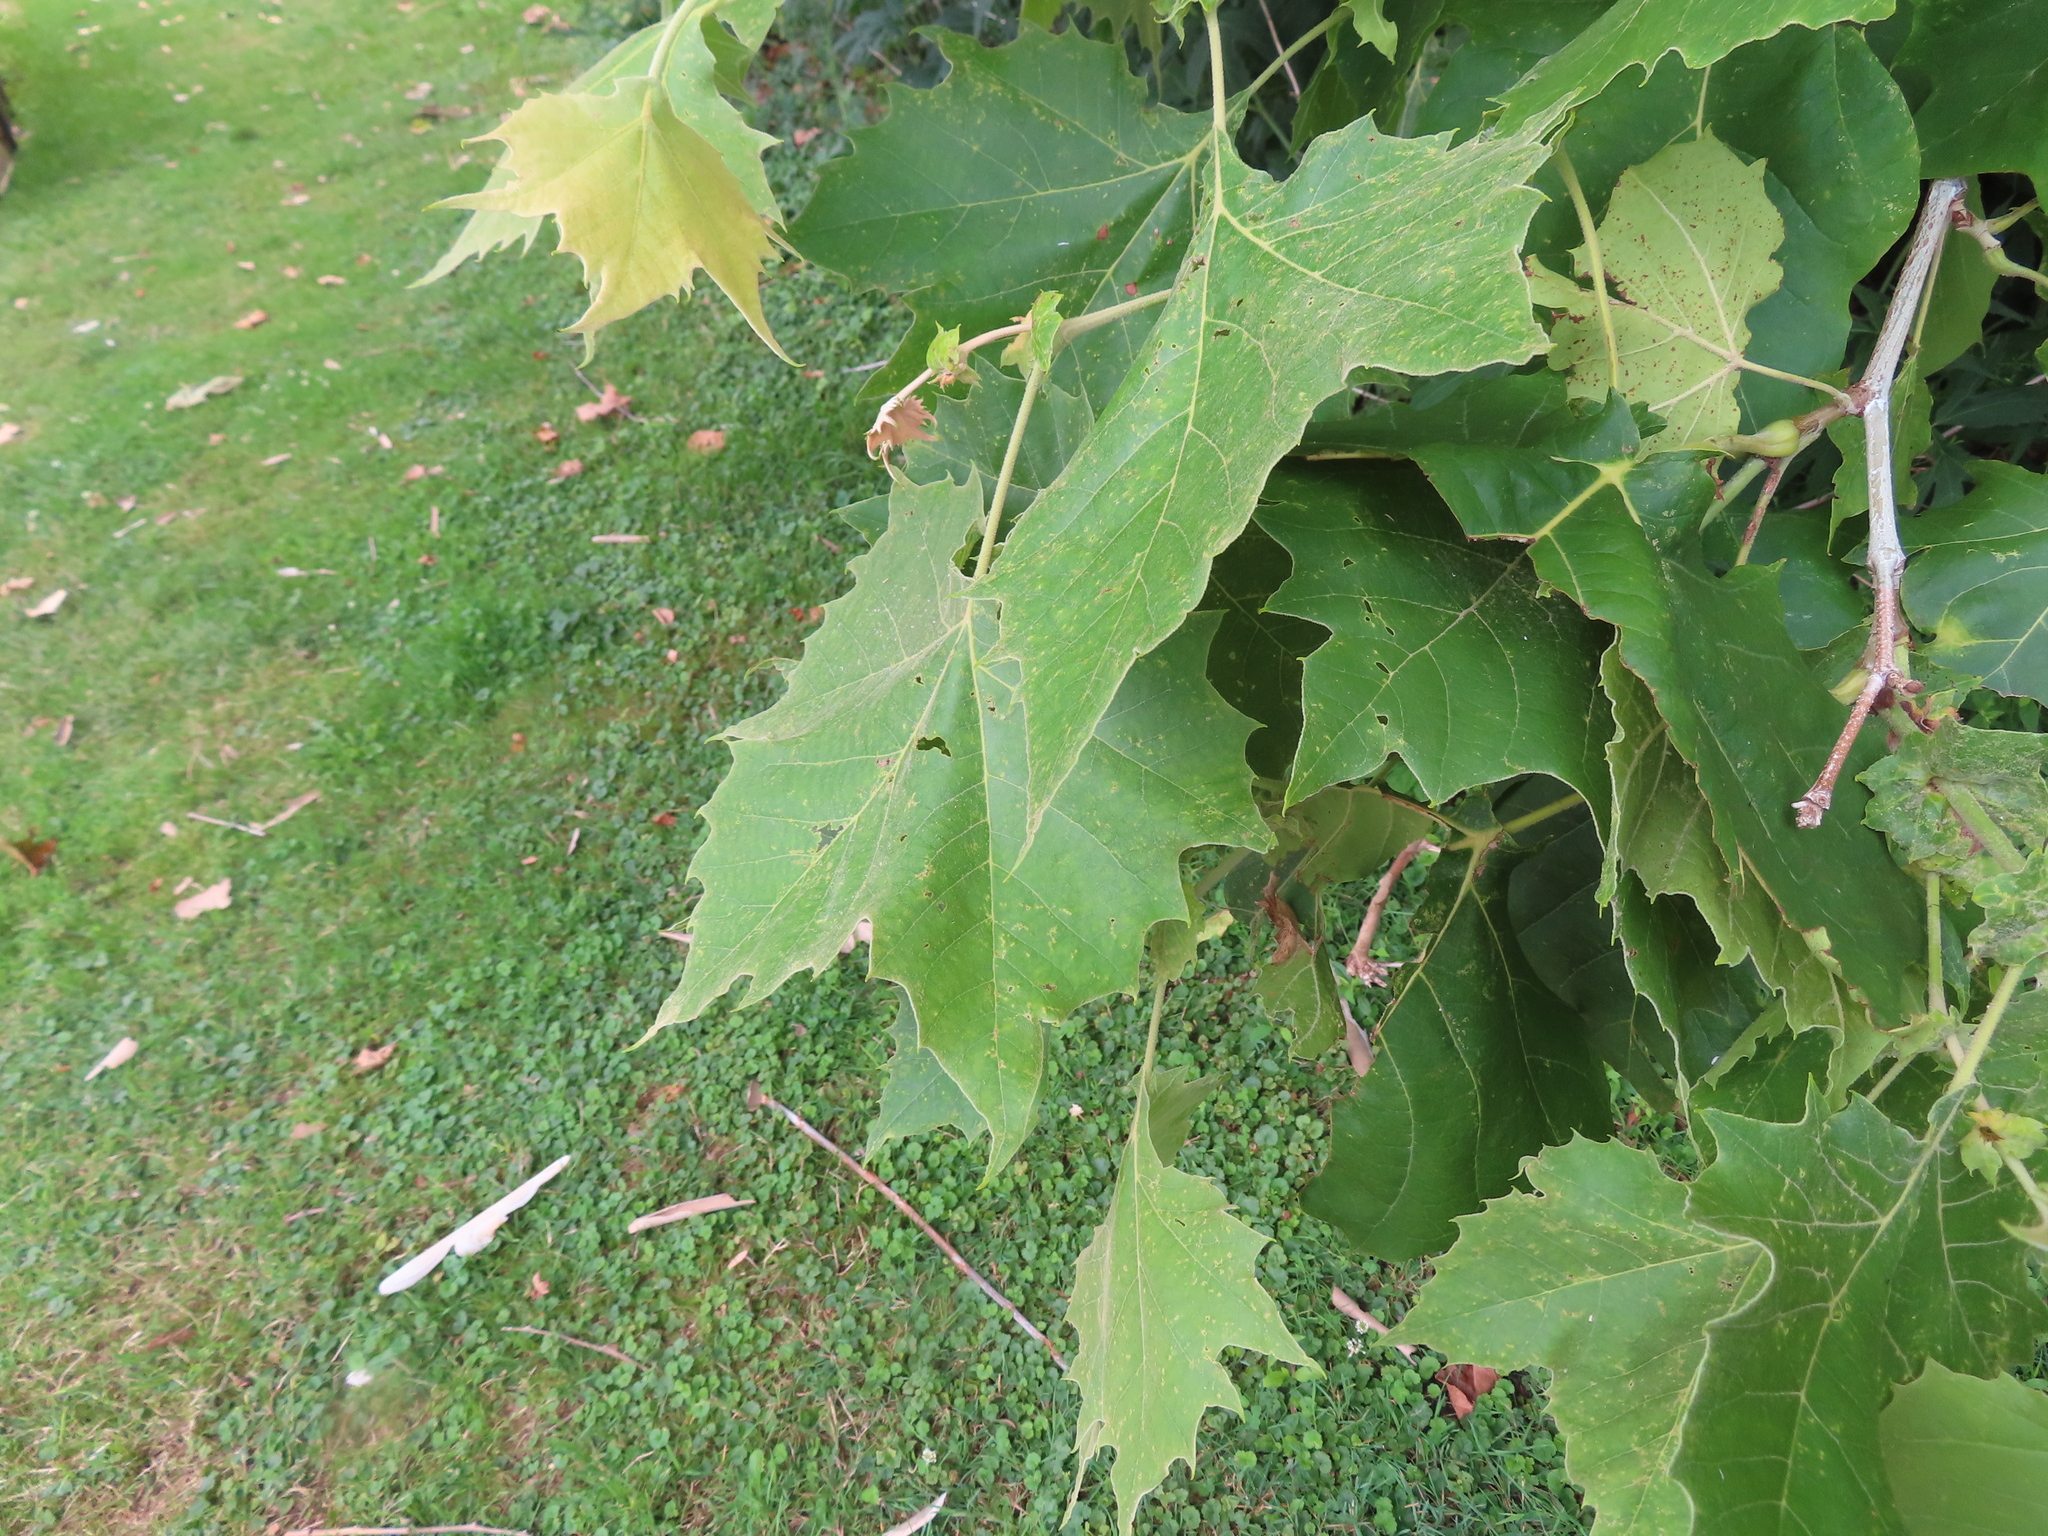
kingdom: Plantae
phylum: Tracheophyta
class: Magnoliopsida
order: Proteales
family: Platanaceae
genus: Platanus
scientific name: Platanus occidentalis
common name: American sycamore
